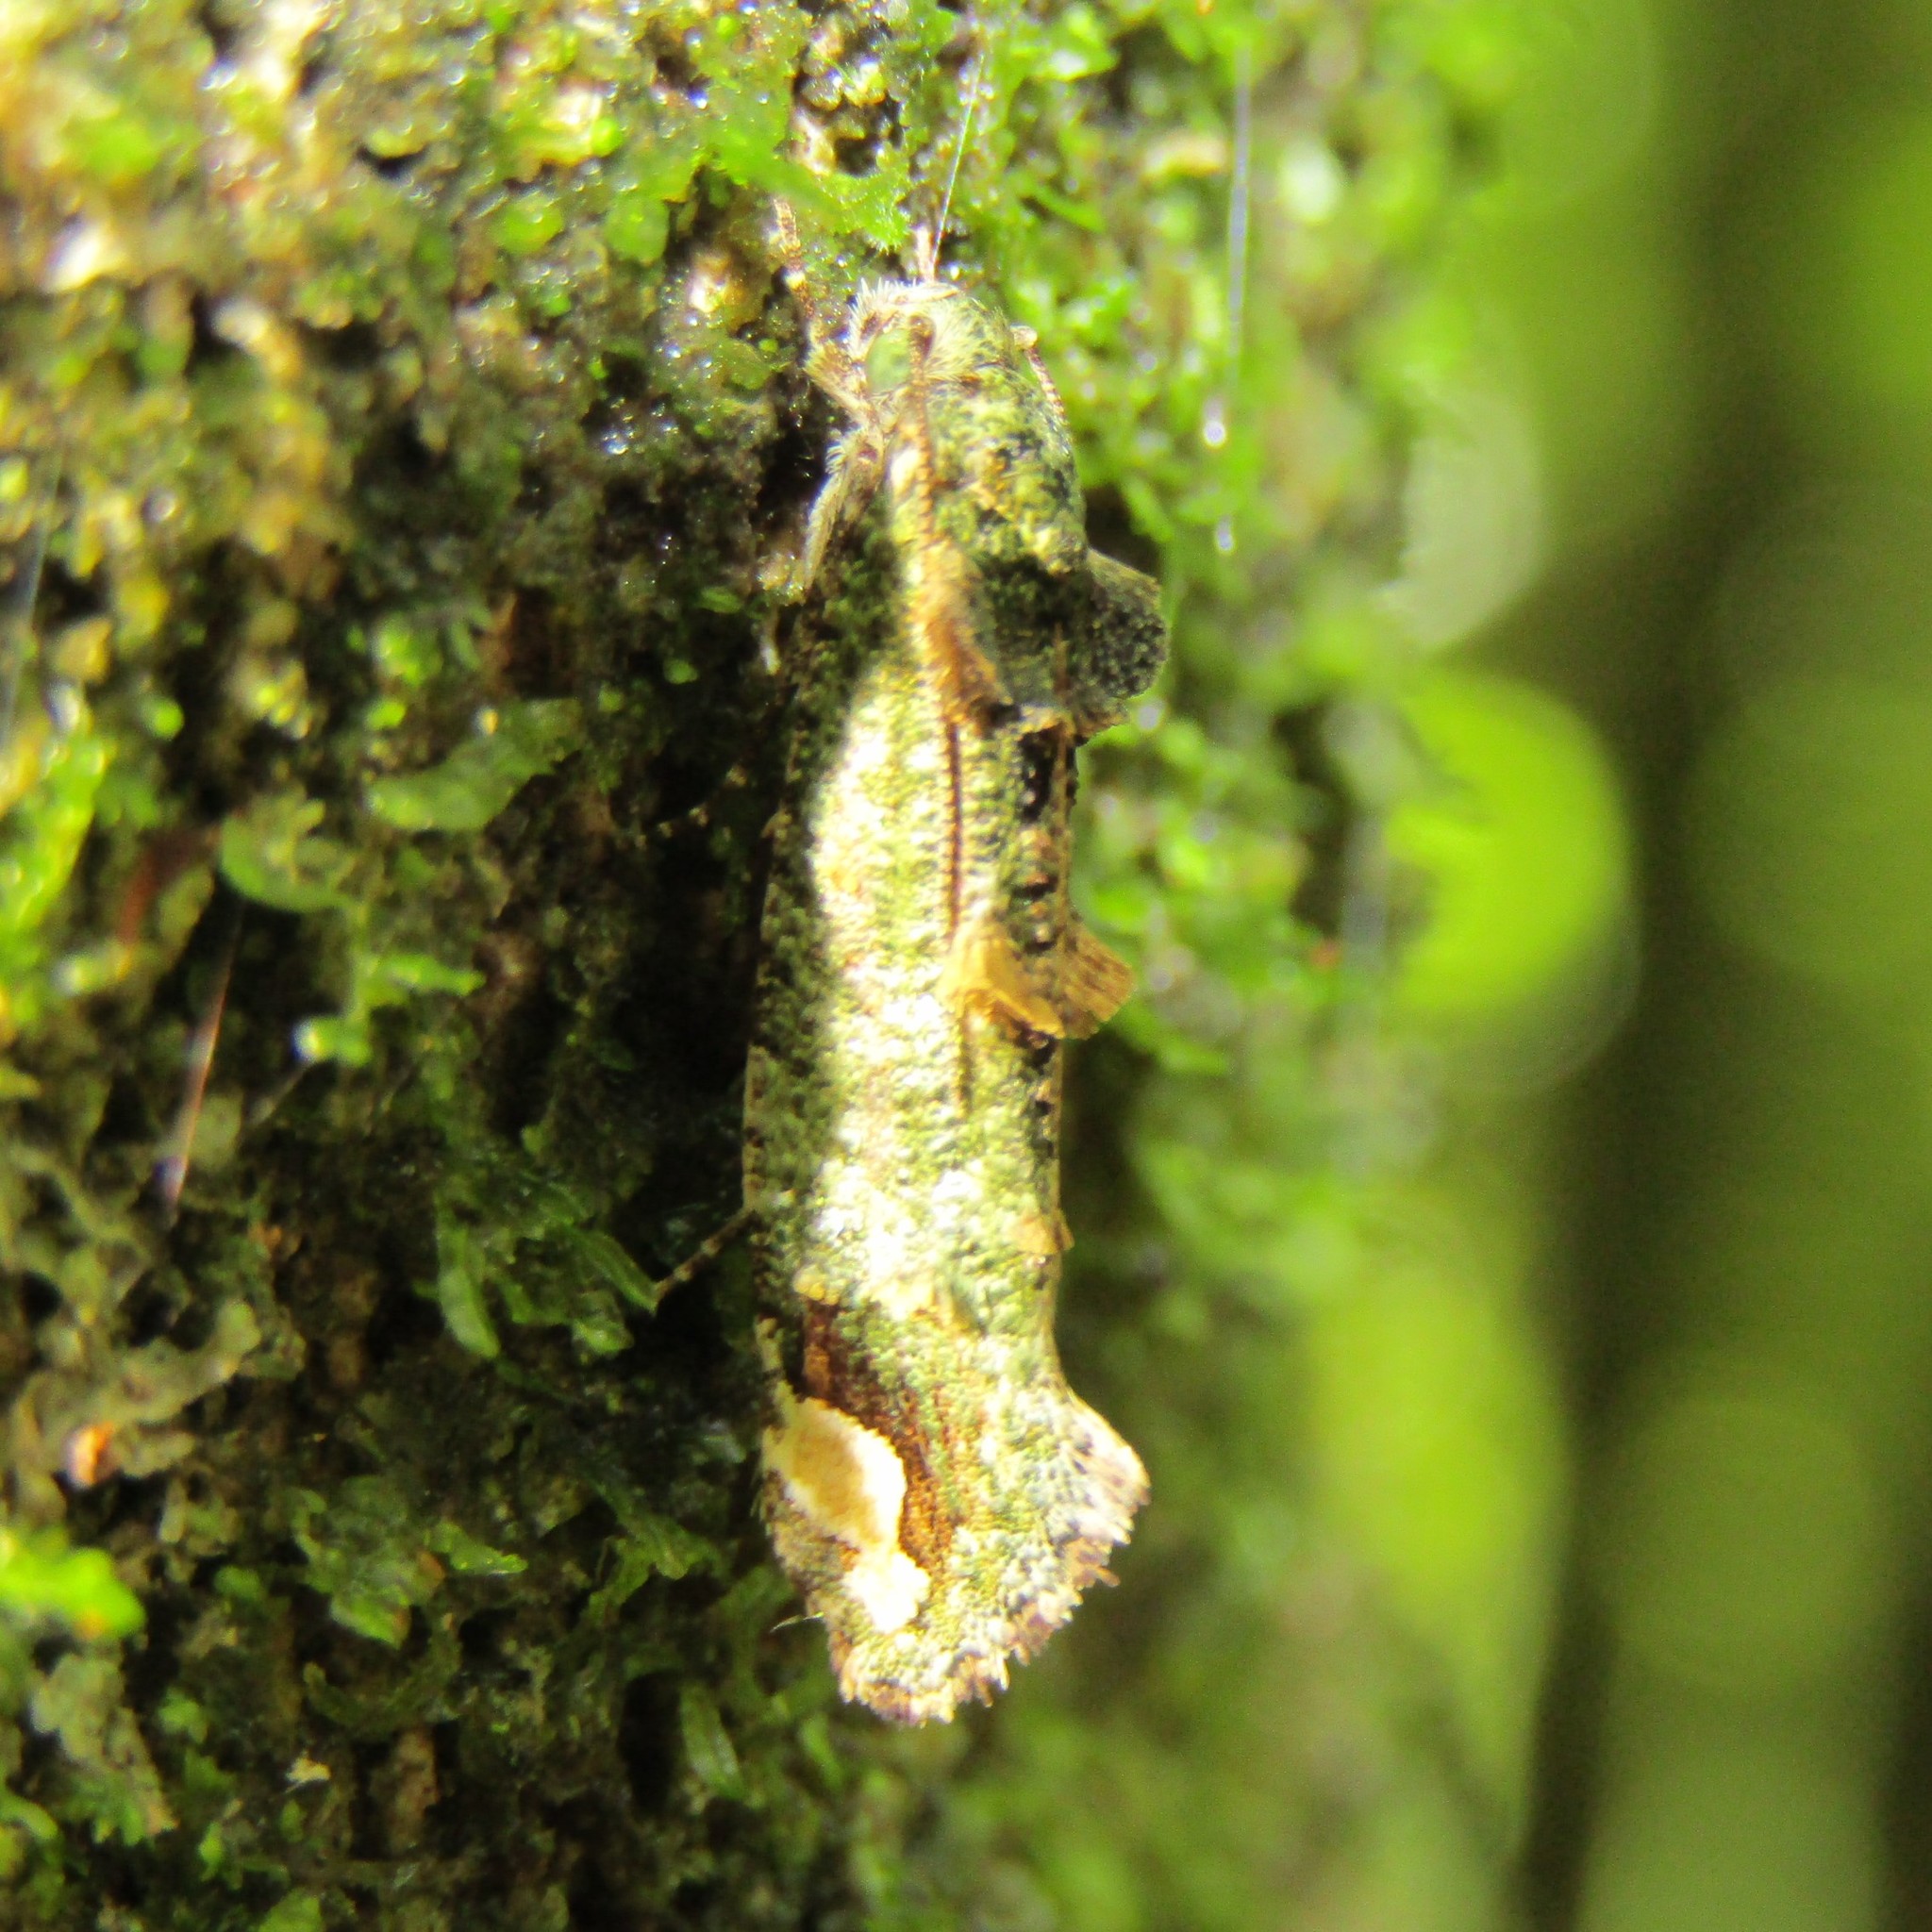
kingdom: Animalia
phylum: Arthropoda
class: Insecta
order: Lepidoptera
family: Tineidae
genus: Lysiphragma
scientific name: Lysiphragma mixochlora
